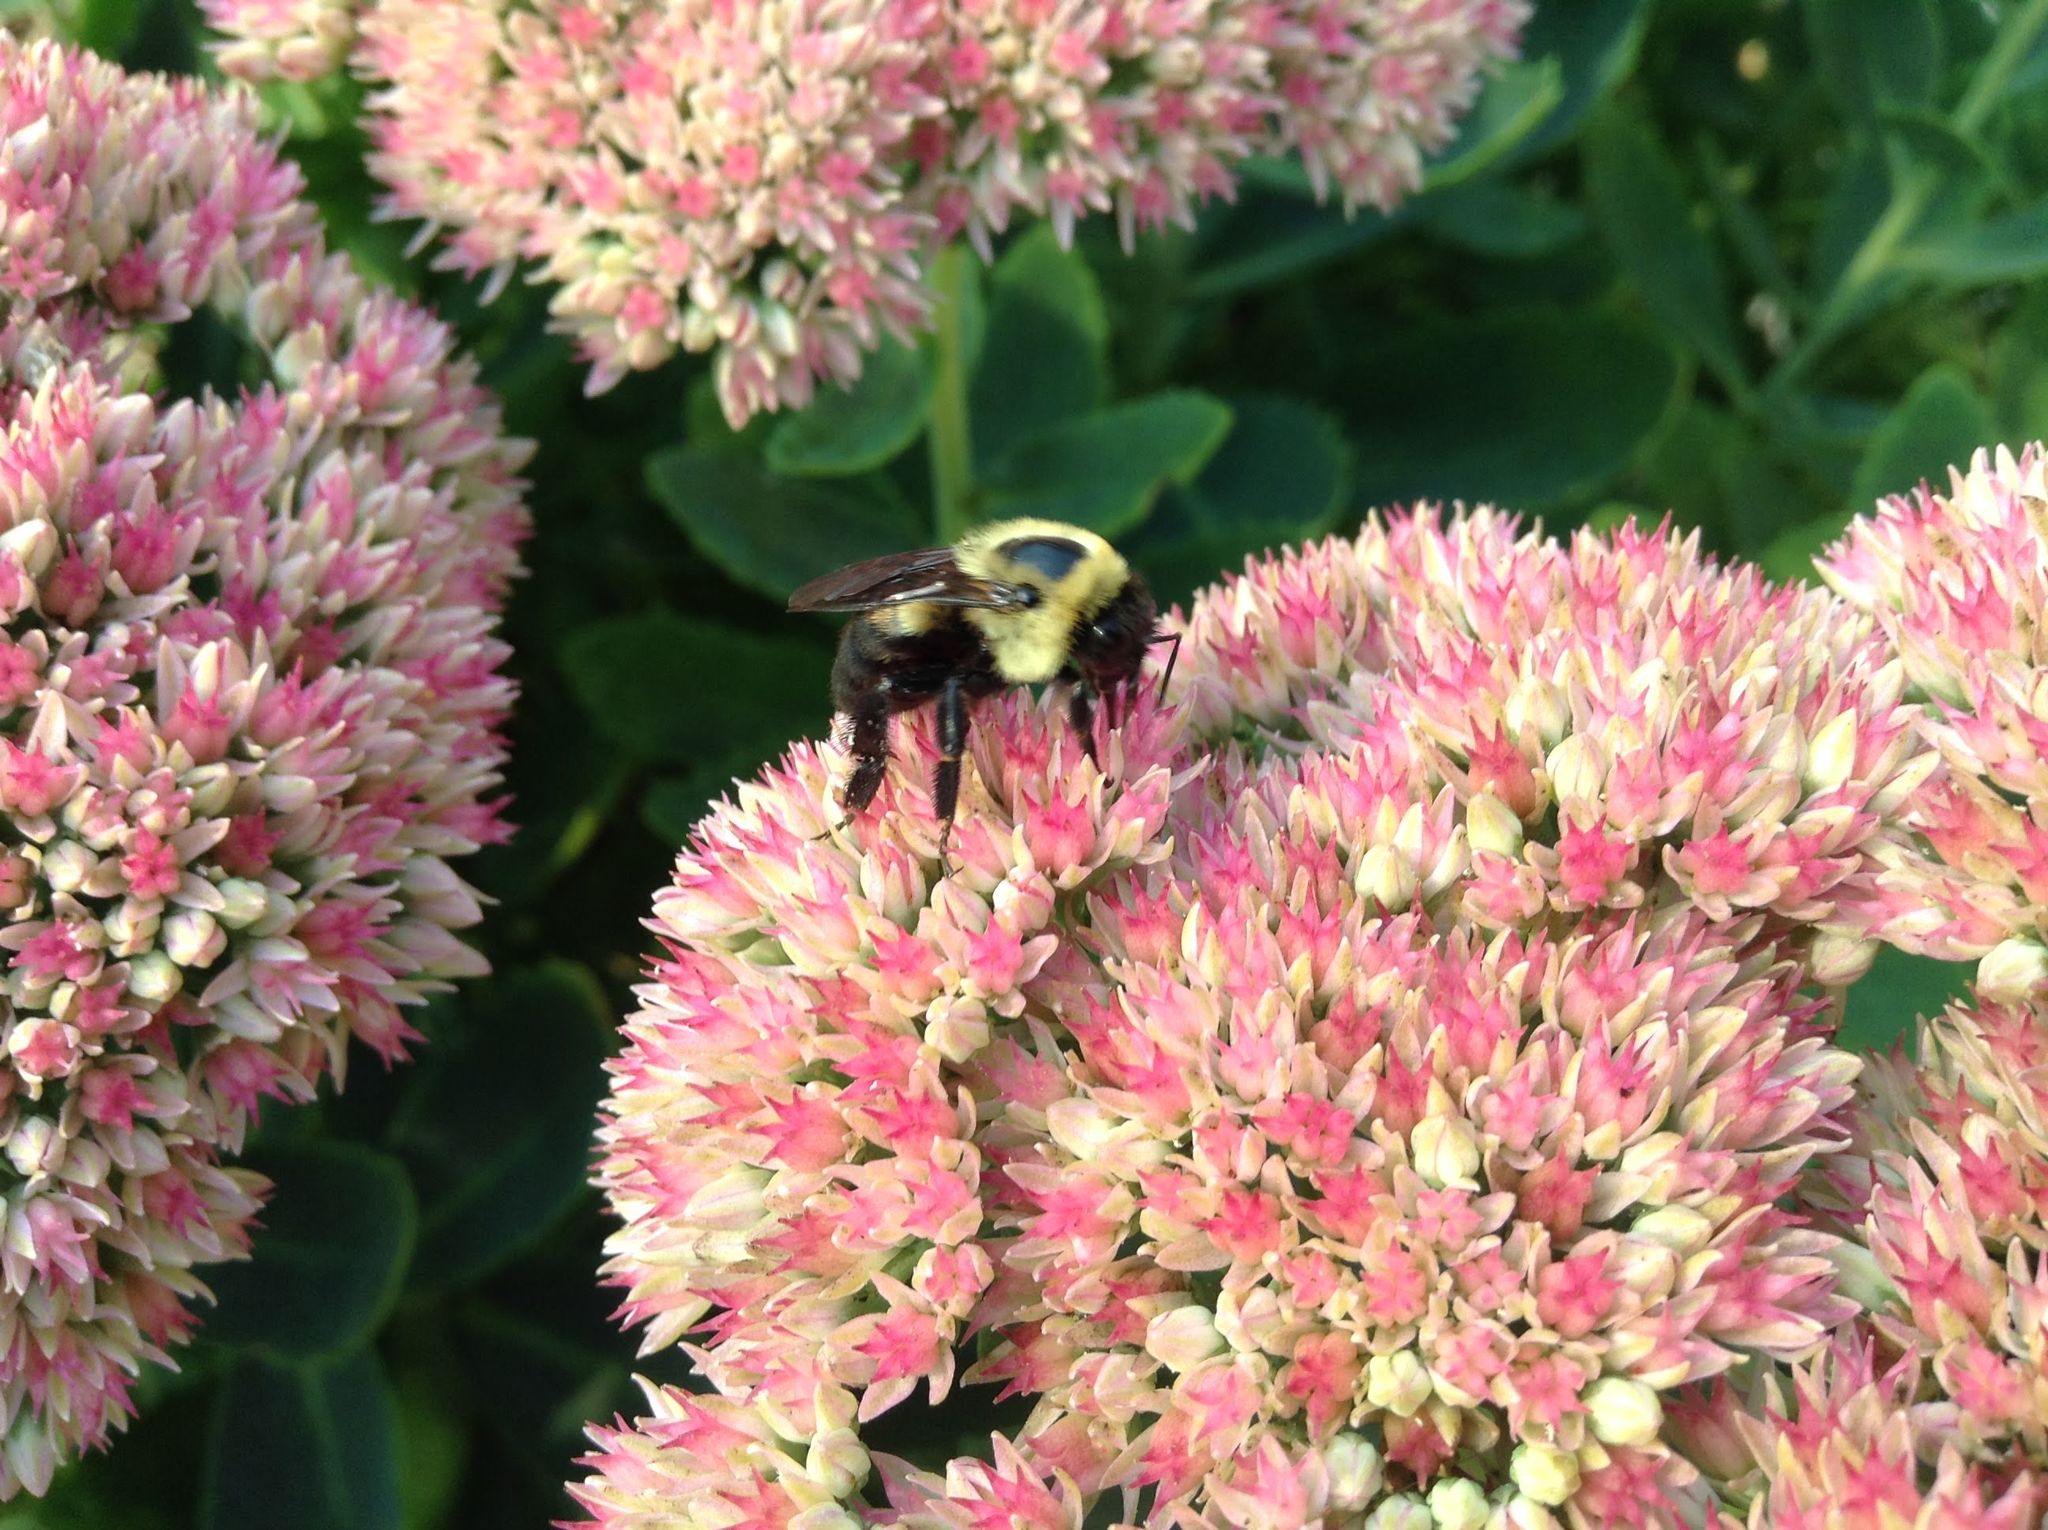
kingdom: Animalia
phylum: Arthropoda
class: Insecta
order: Hymenoptera
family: Apidae
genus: Bombus
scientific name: Bombus griseocollis
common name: Brown-belted bumble bee
